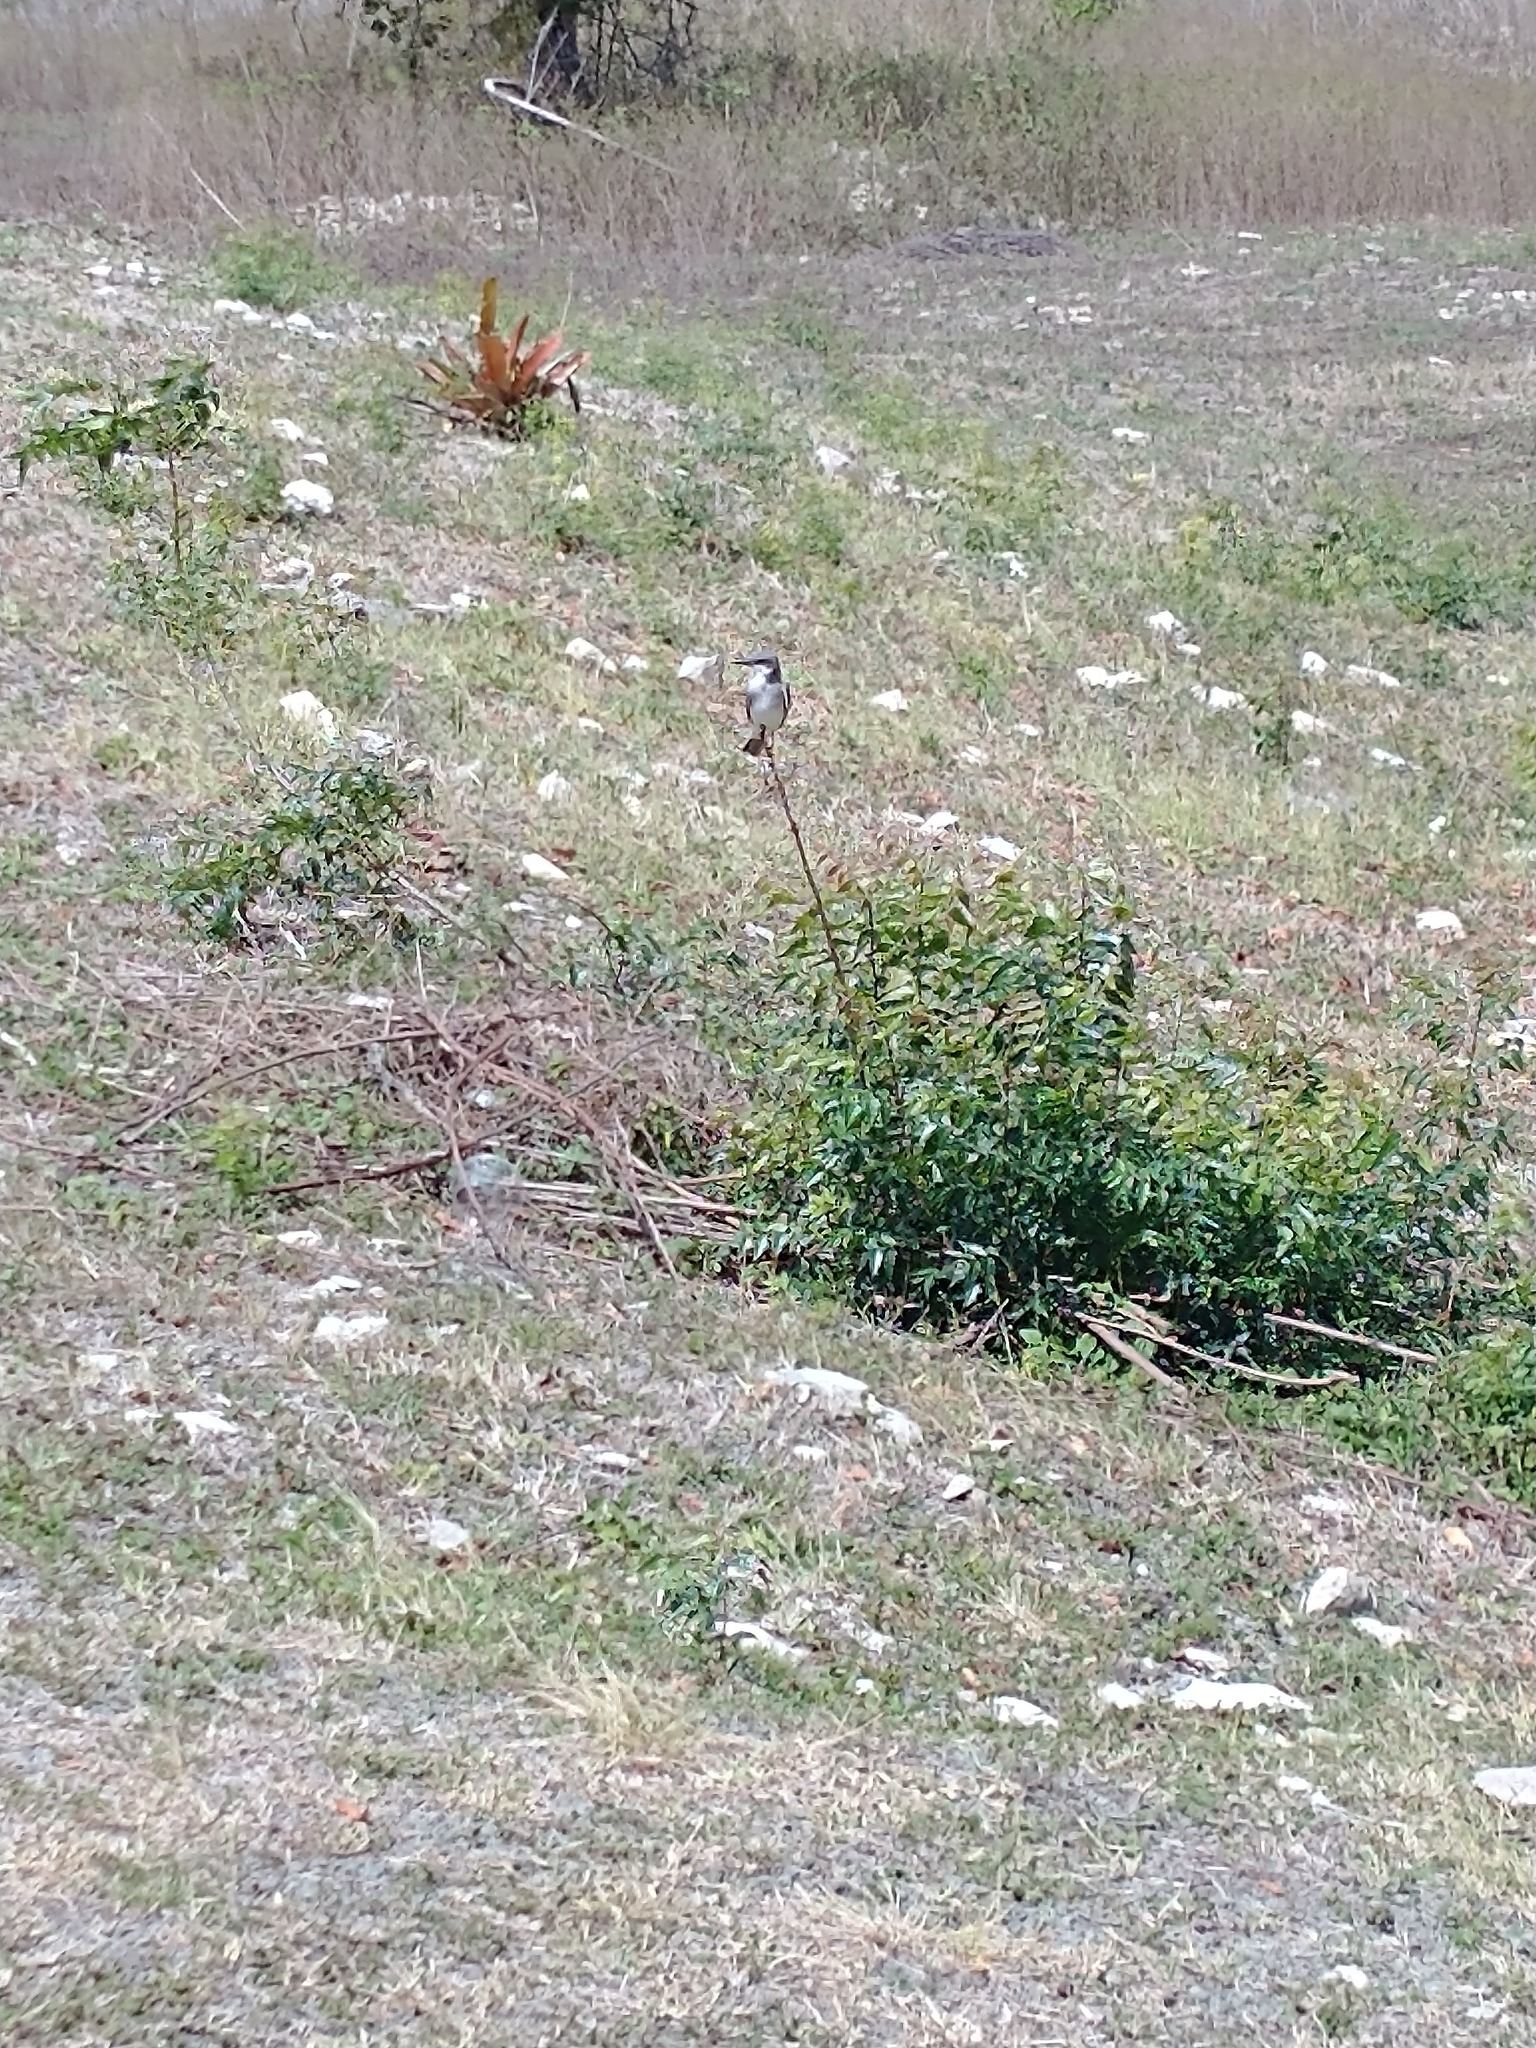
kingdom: Animalia
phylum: Chordata
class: Aves
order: Passeriformes
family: Tyrannidae
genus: Tyrannus
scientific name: Tyrannus dominicensis
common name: Gray kingbird
